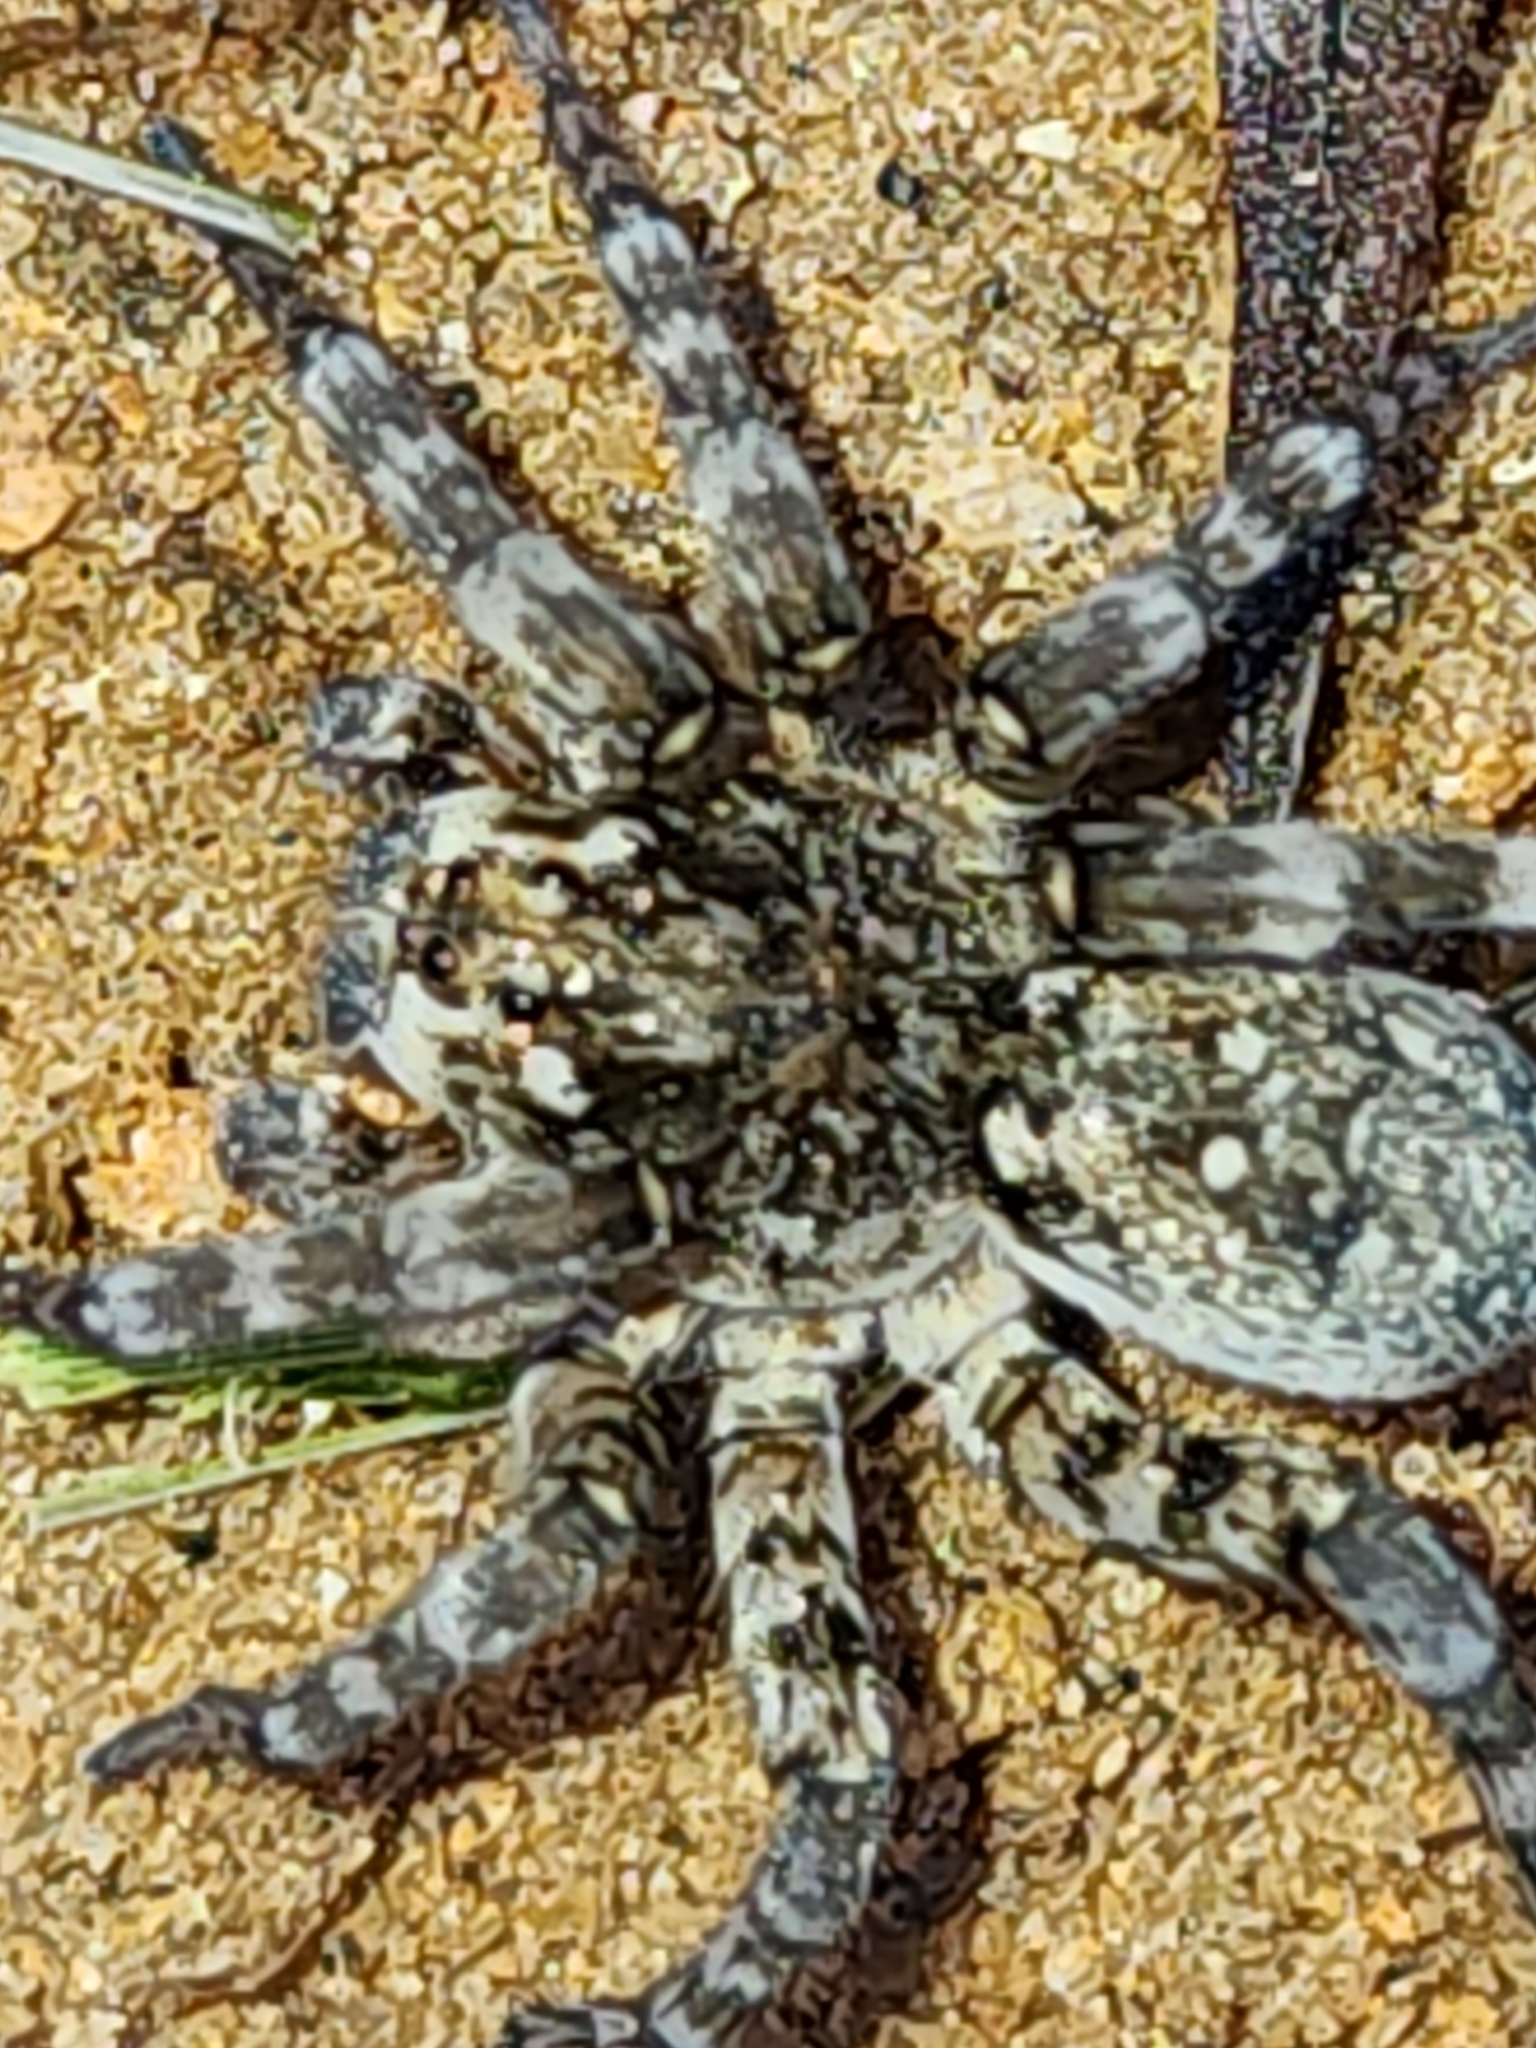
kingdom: Animalia
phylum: Arthropoda
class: Arachnida
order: Araneae
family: Lycosidae
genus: Arctosa
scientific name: Arctosa littoralis
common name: Wolf spiders
